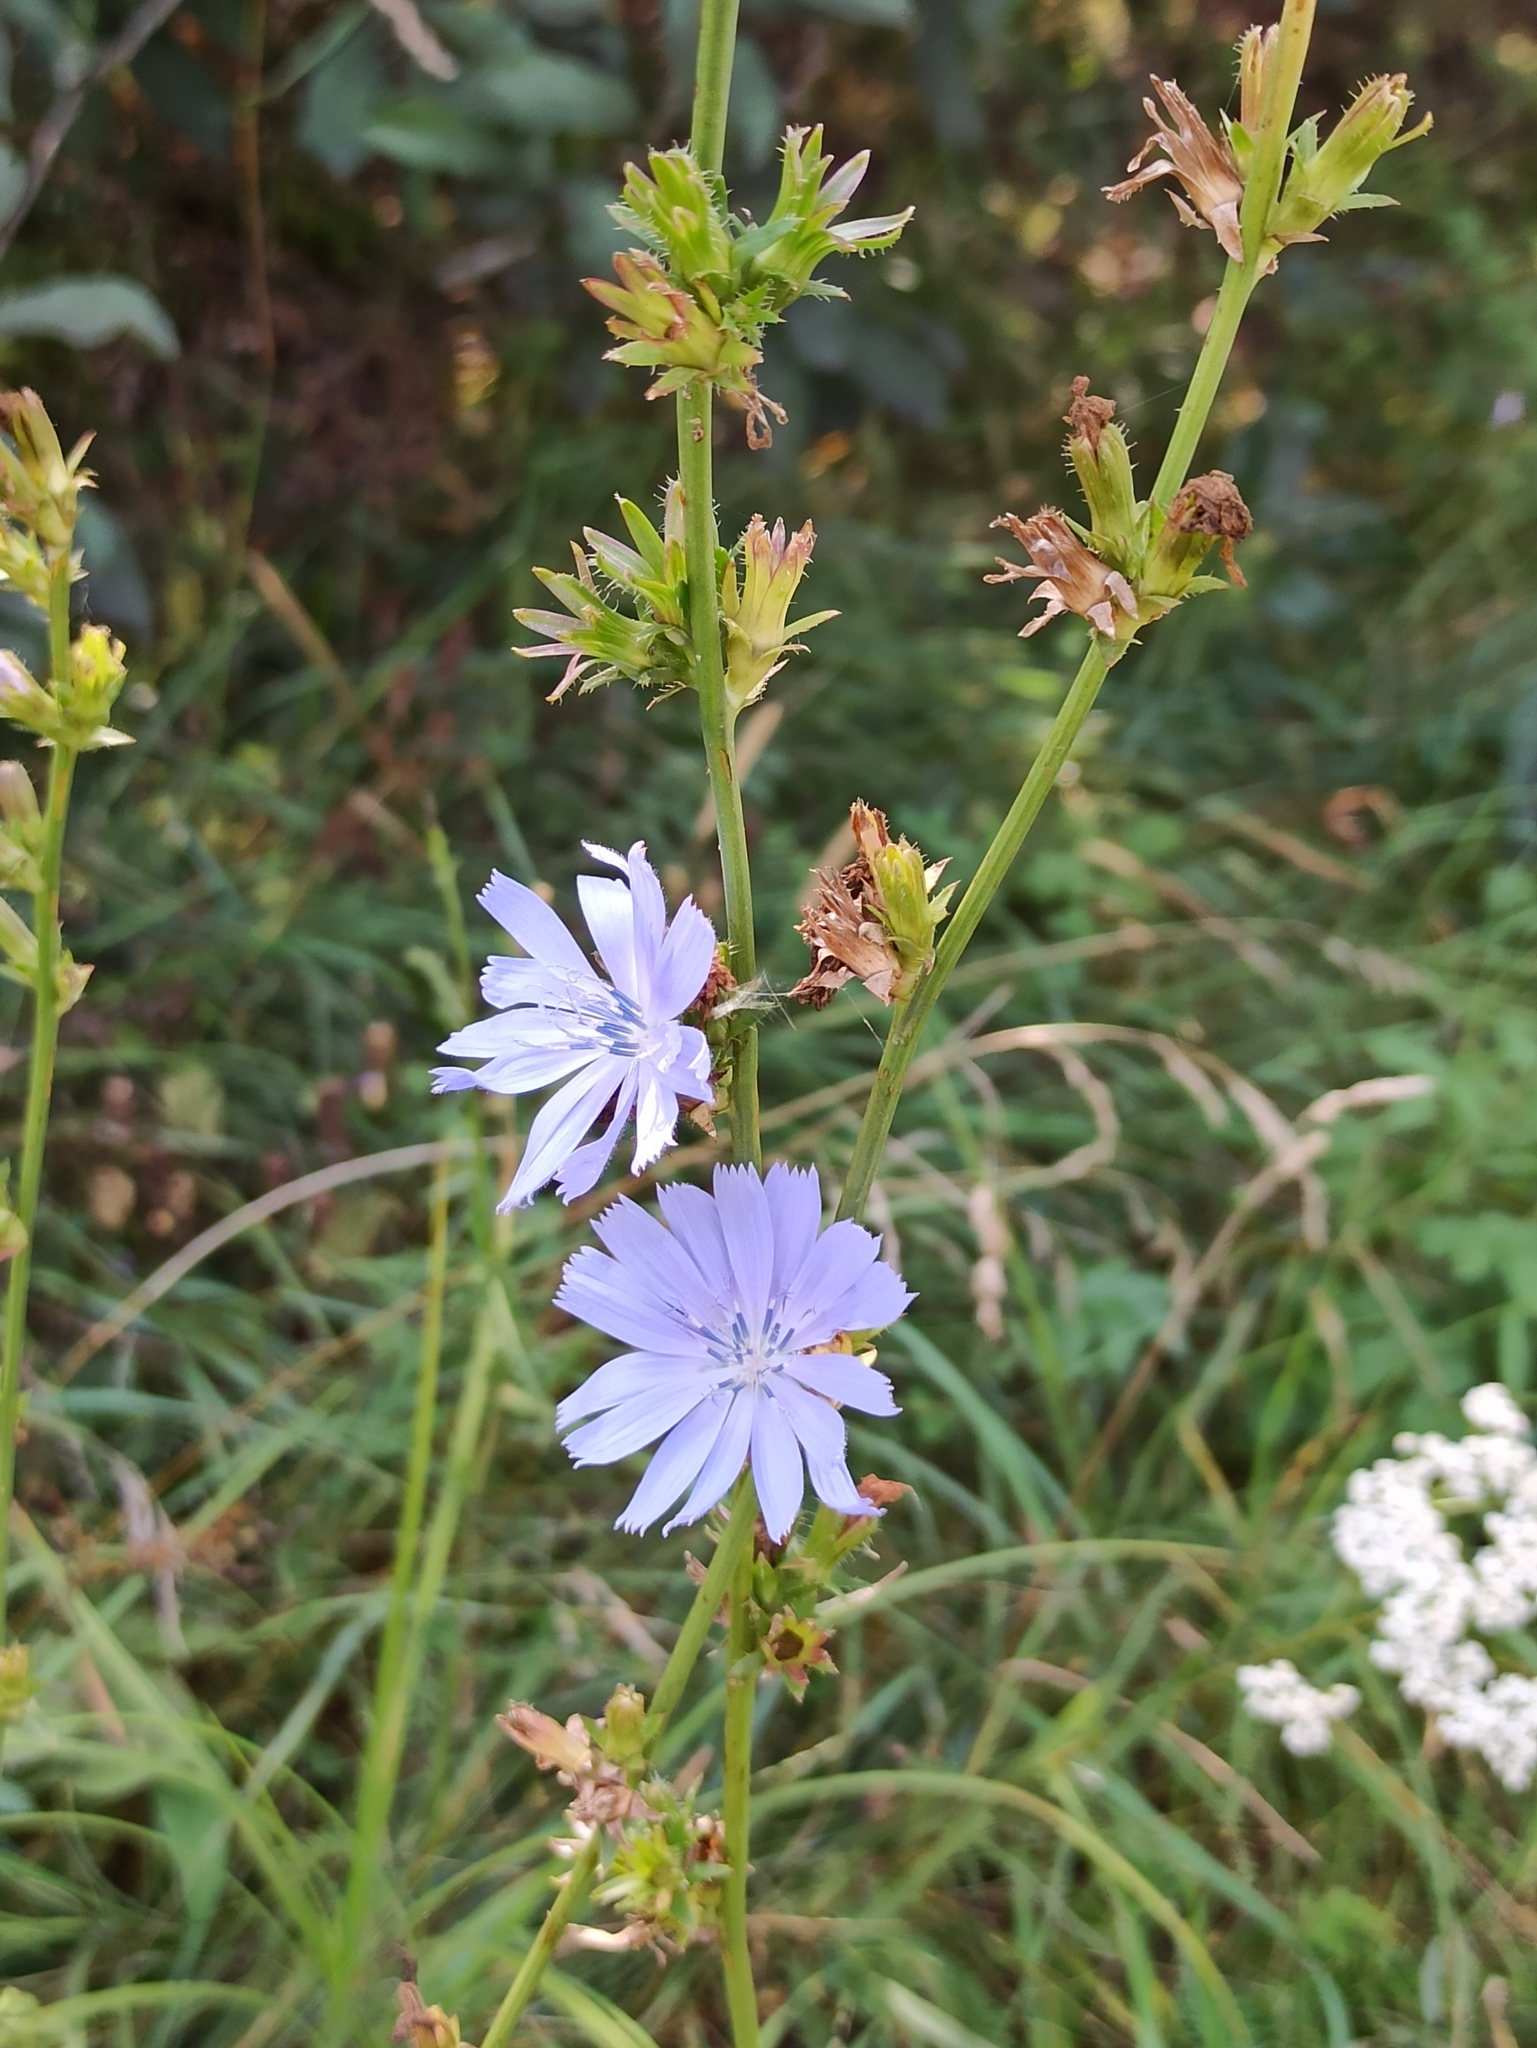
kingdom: Plantae
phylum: Tracheophyta
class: Magnoliopsida
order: Asterales
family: Asteraceae
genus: Cichorium
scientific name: Cichorium intybus
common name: Chicory
